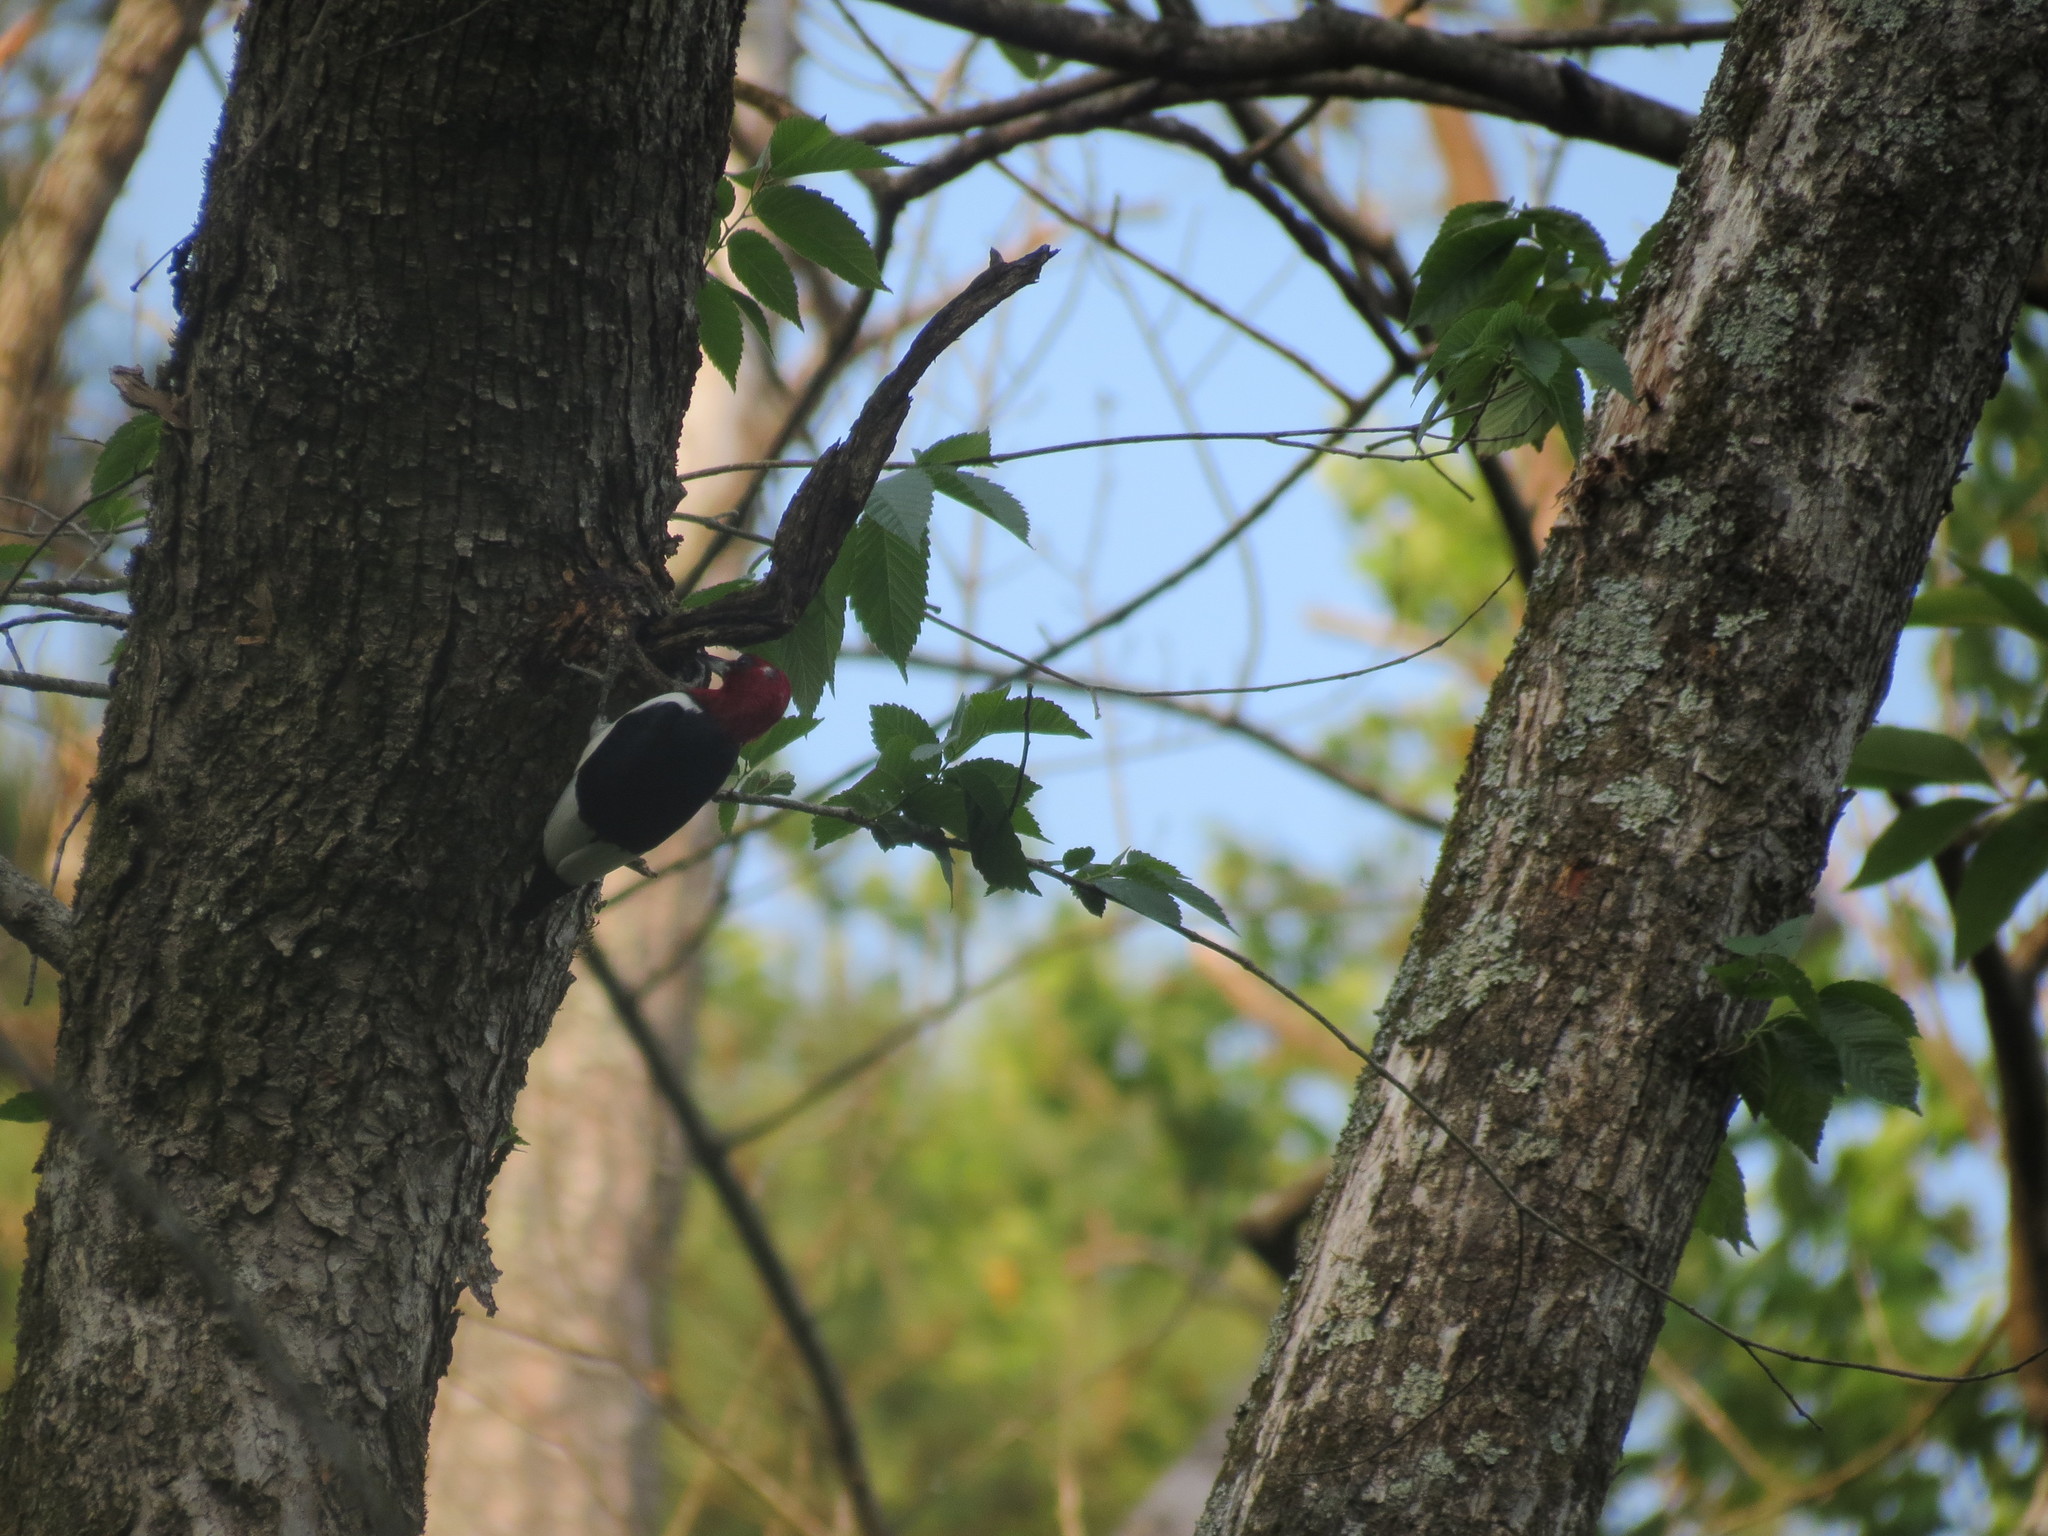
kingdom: Animalia
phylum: Chordata
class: Aves
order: Piciformes
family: Picidae
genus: Melanerpes
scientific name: Melanerpes erythrocephalus
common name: Red-headed woodpecker
